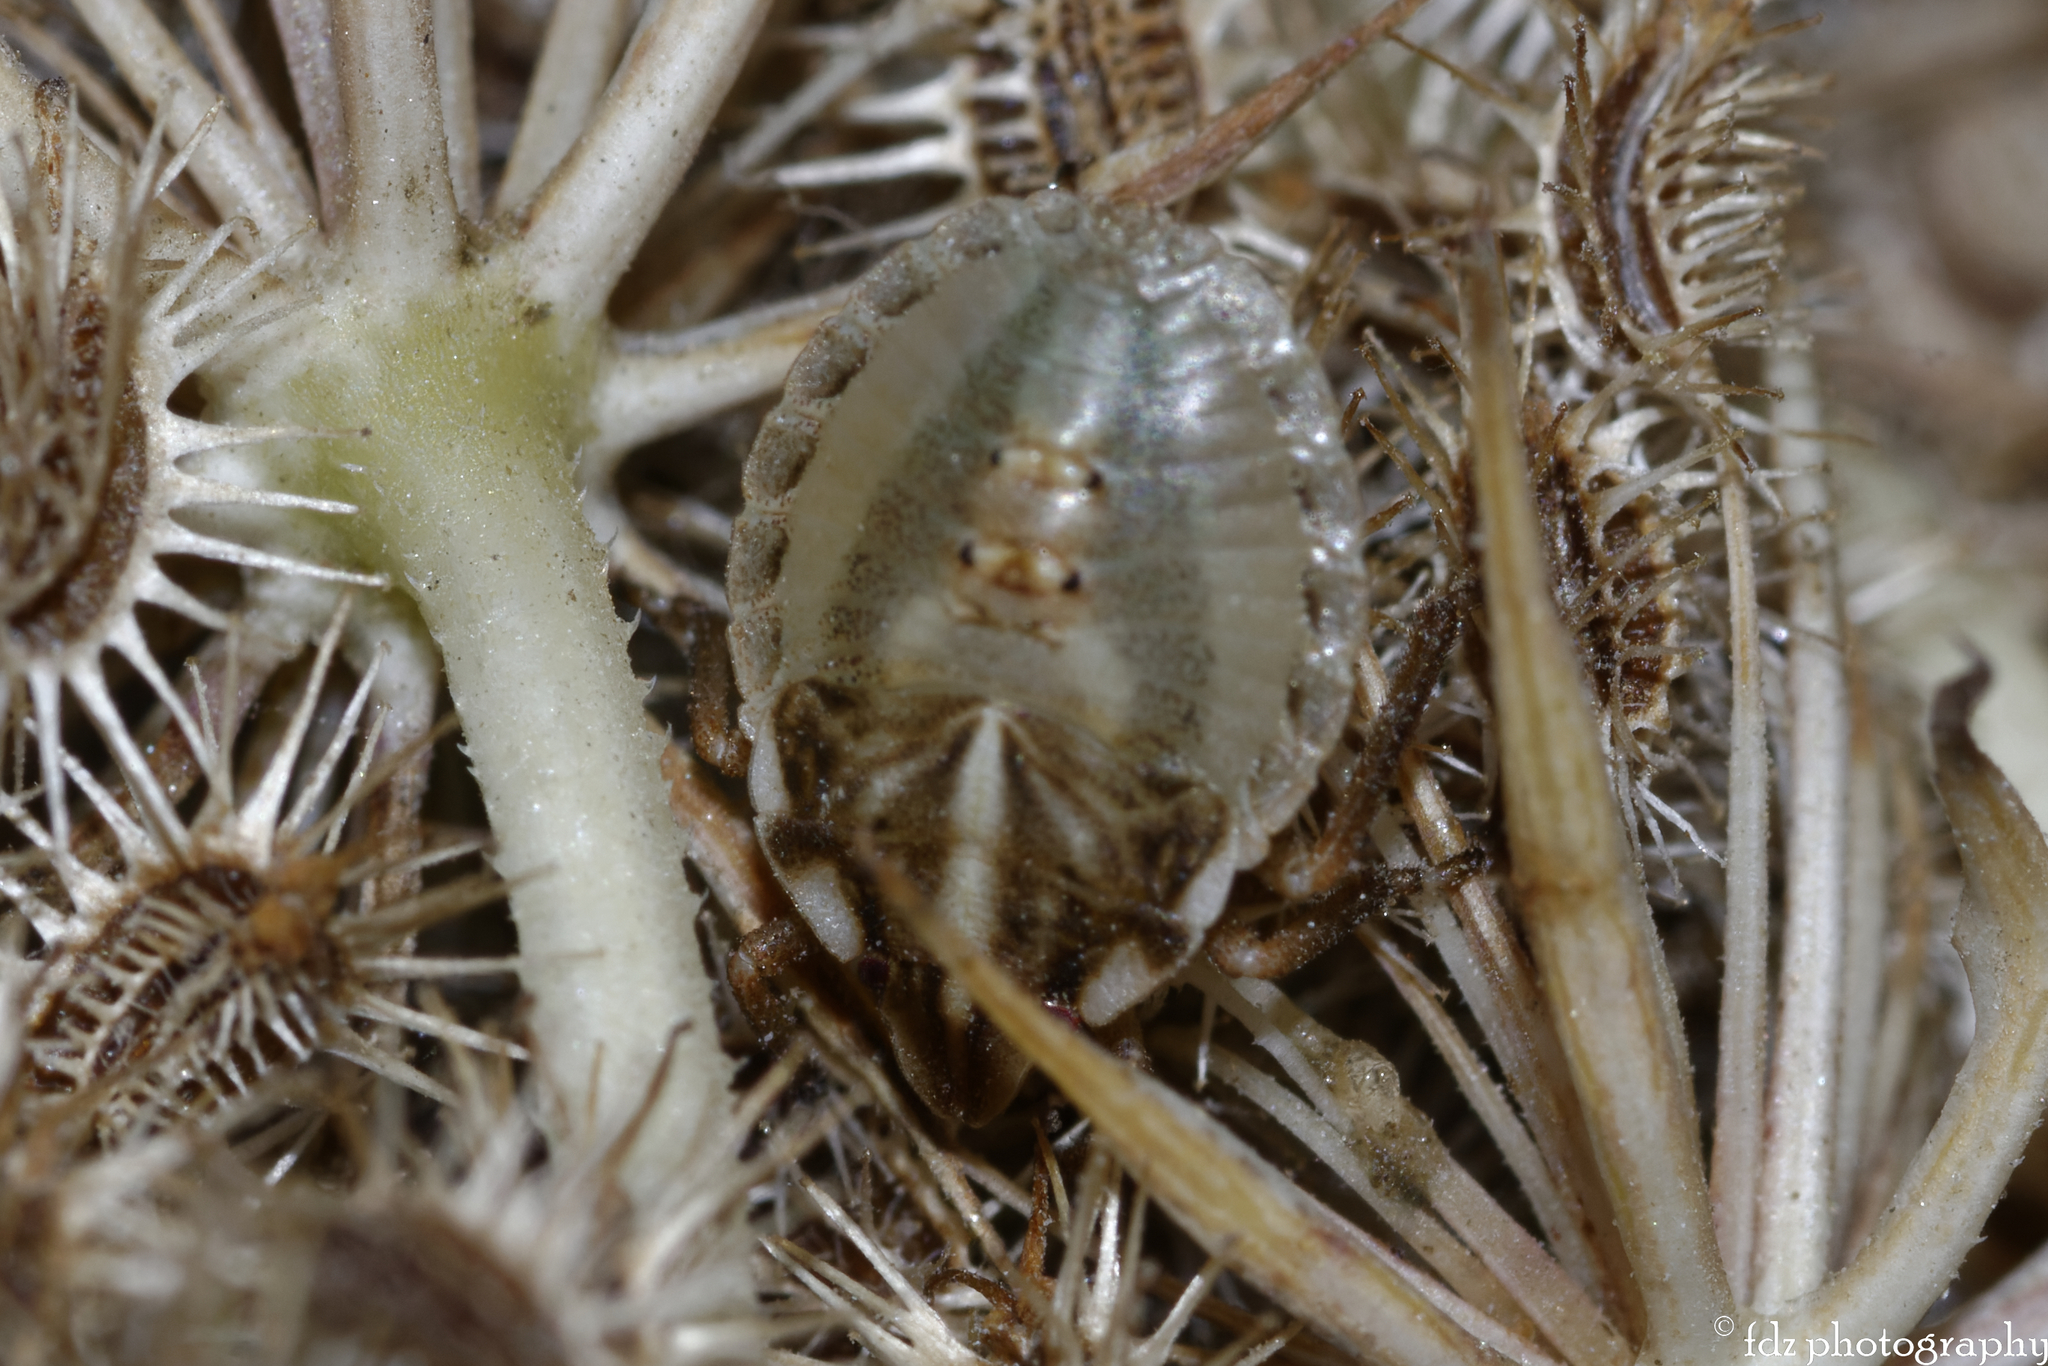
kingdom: Animalia
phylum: Arthropoda
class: Insecta
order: Hemiptera
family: Pentatomidae
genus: Graphosoma
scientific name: Graphosoma italicum
